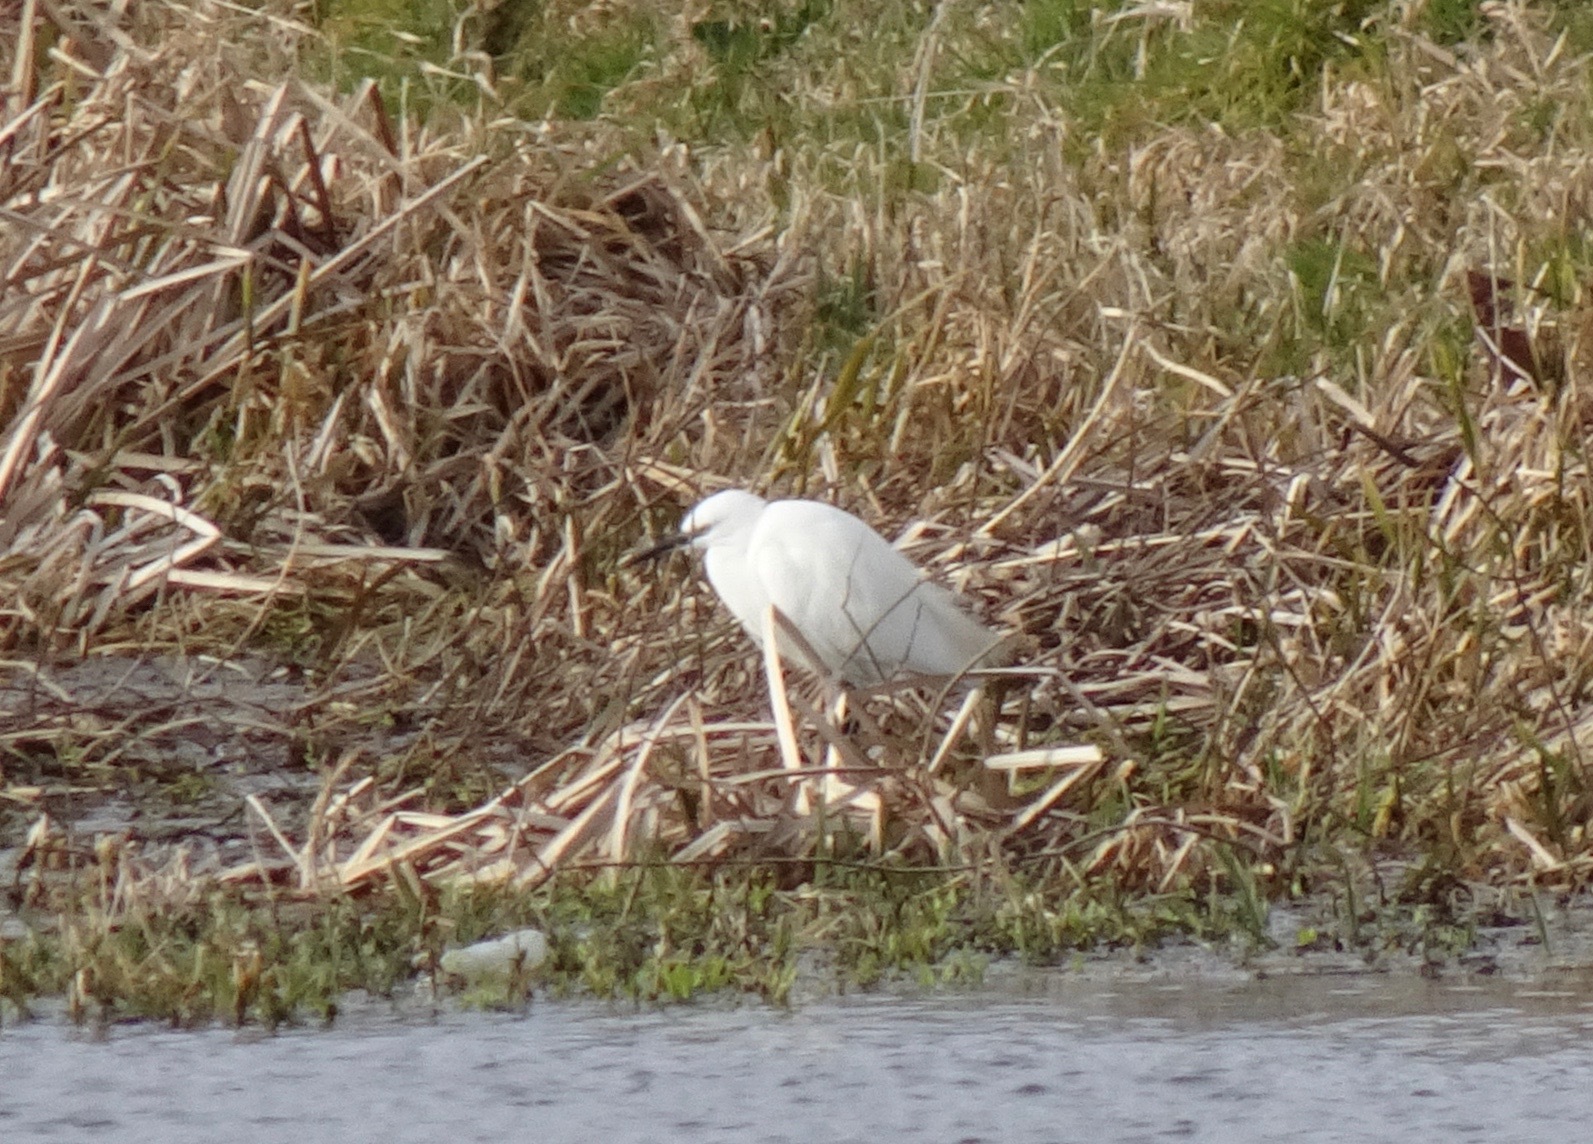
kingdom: Animalia
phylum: Chordata
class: Aves
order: Pelecaniformes
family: Ardeidae
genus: Egretta
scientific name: Egretta garzetta
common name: Little egret
